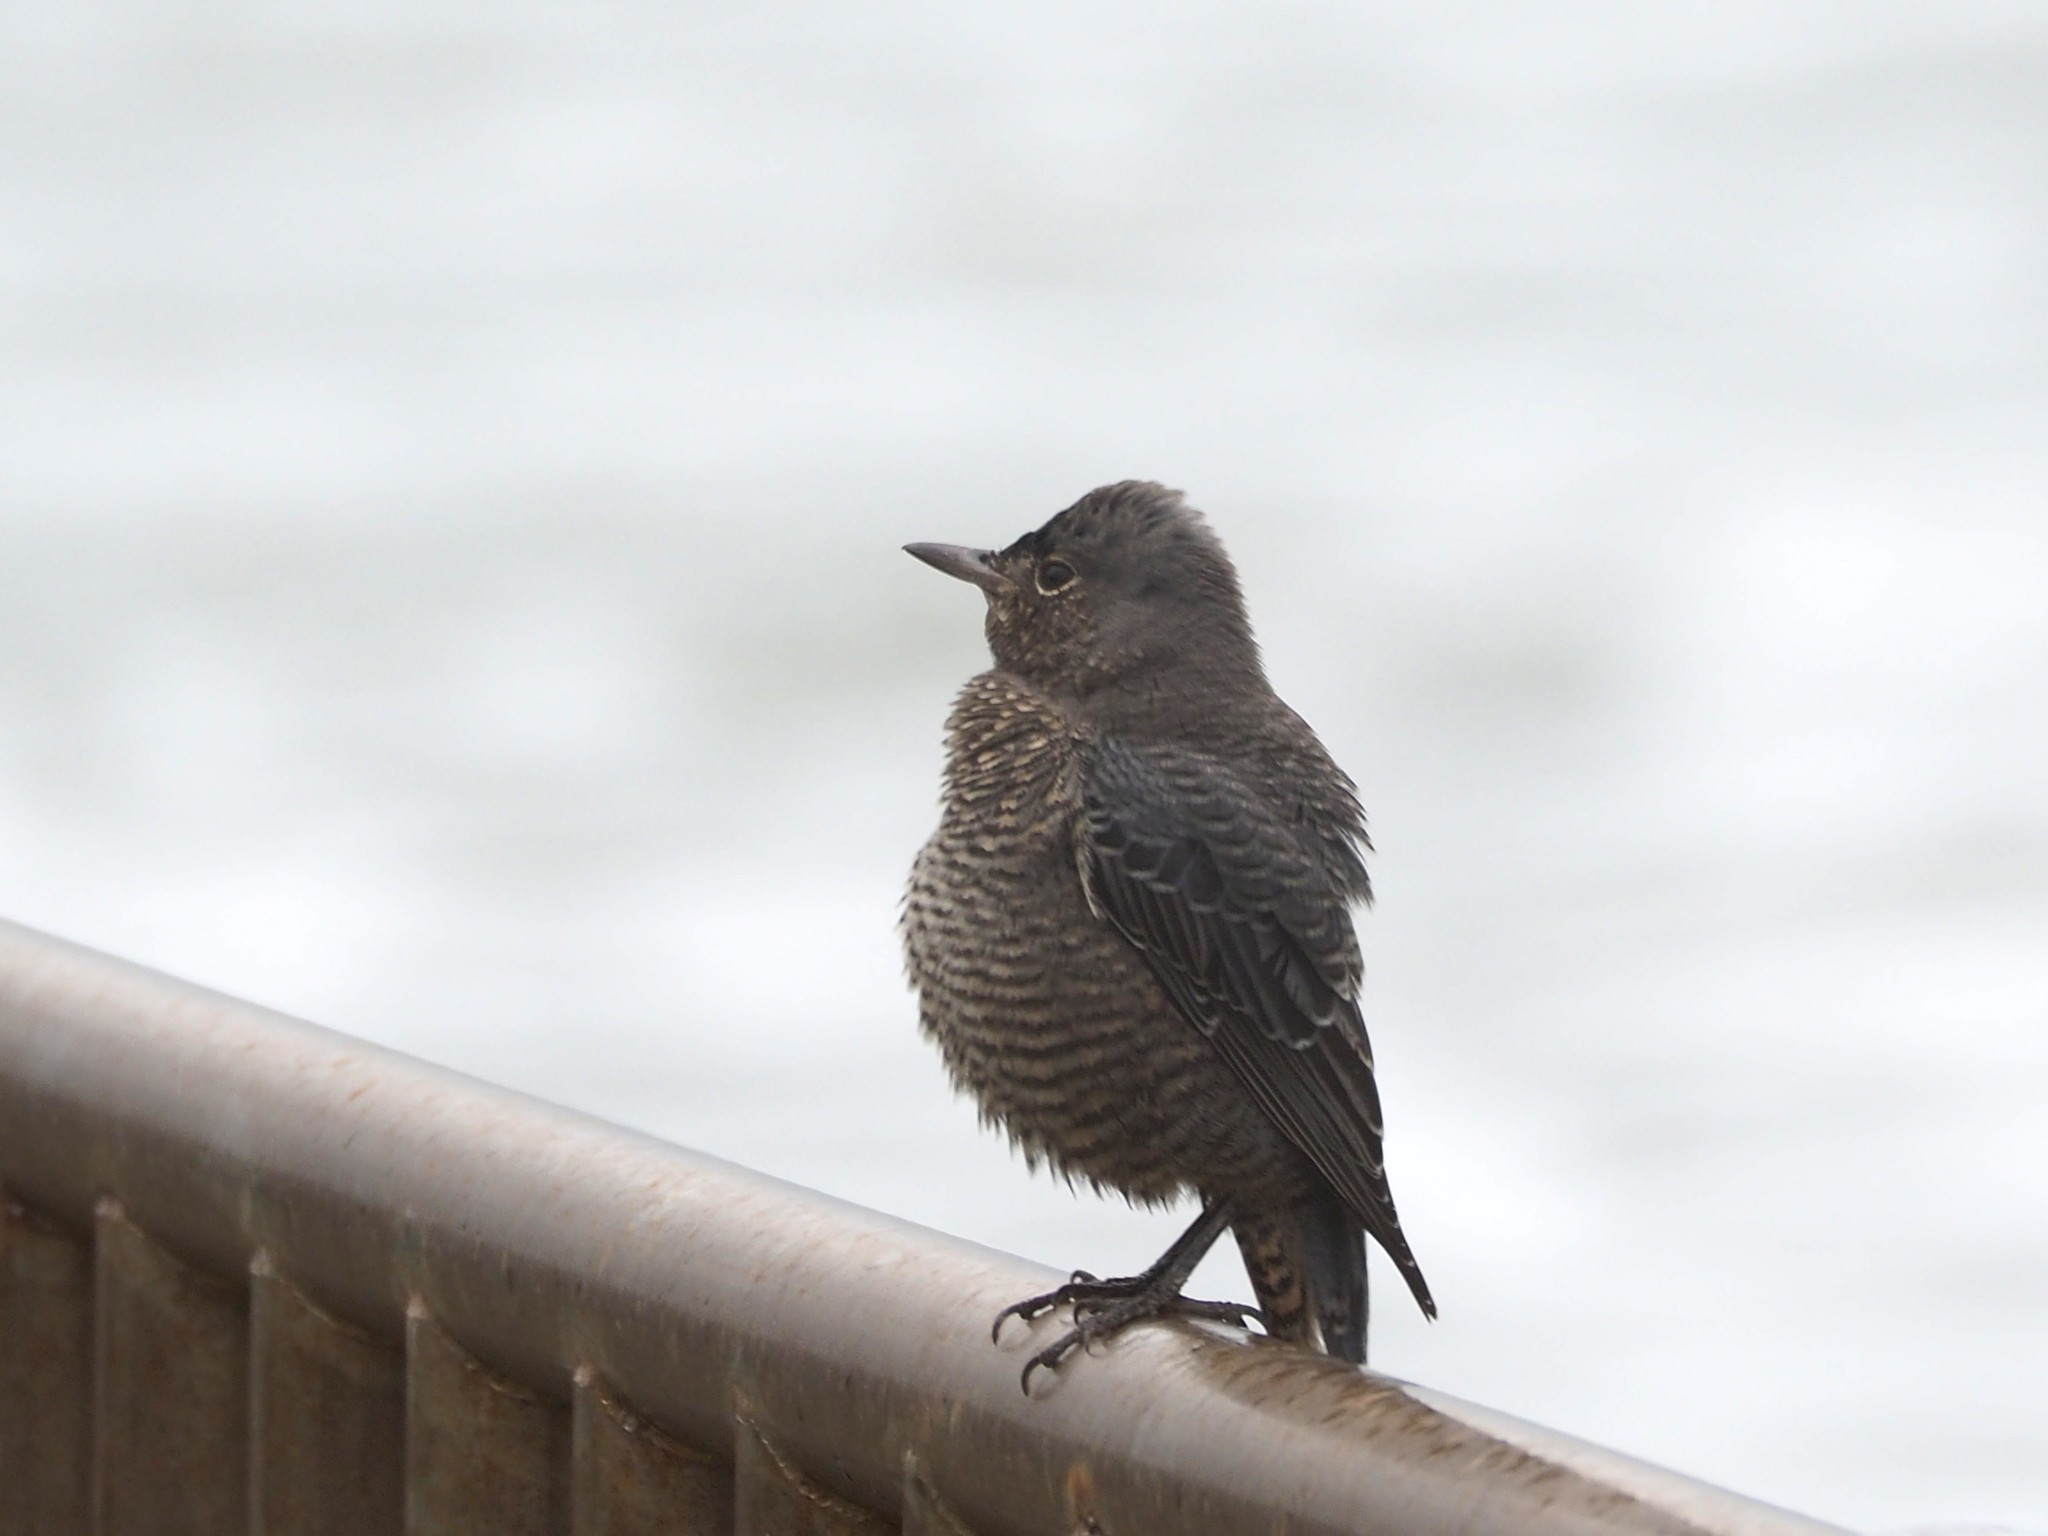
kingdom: Animalia
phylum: Chordata
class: Aves
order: Passeriformes
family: Muscicapidae
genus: Monticola
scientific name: Monticola solitarius
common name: Blue rock thrush
